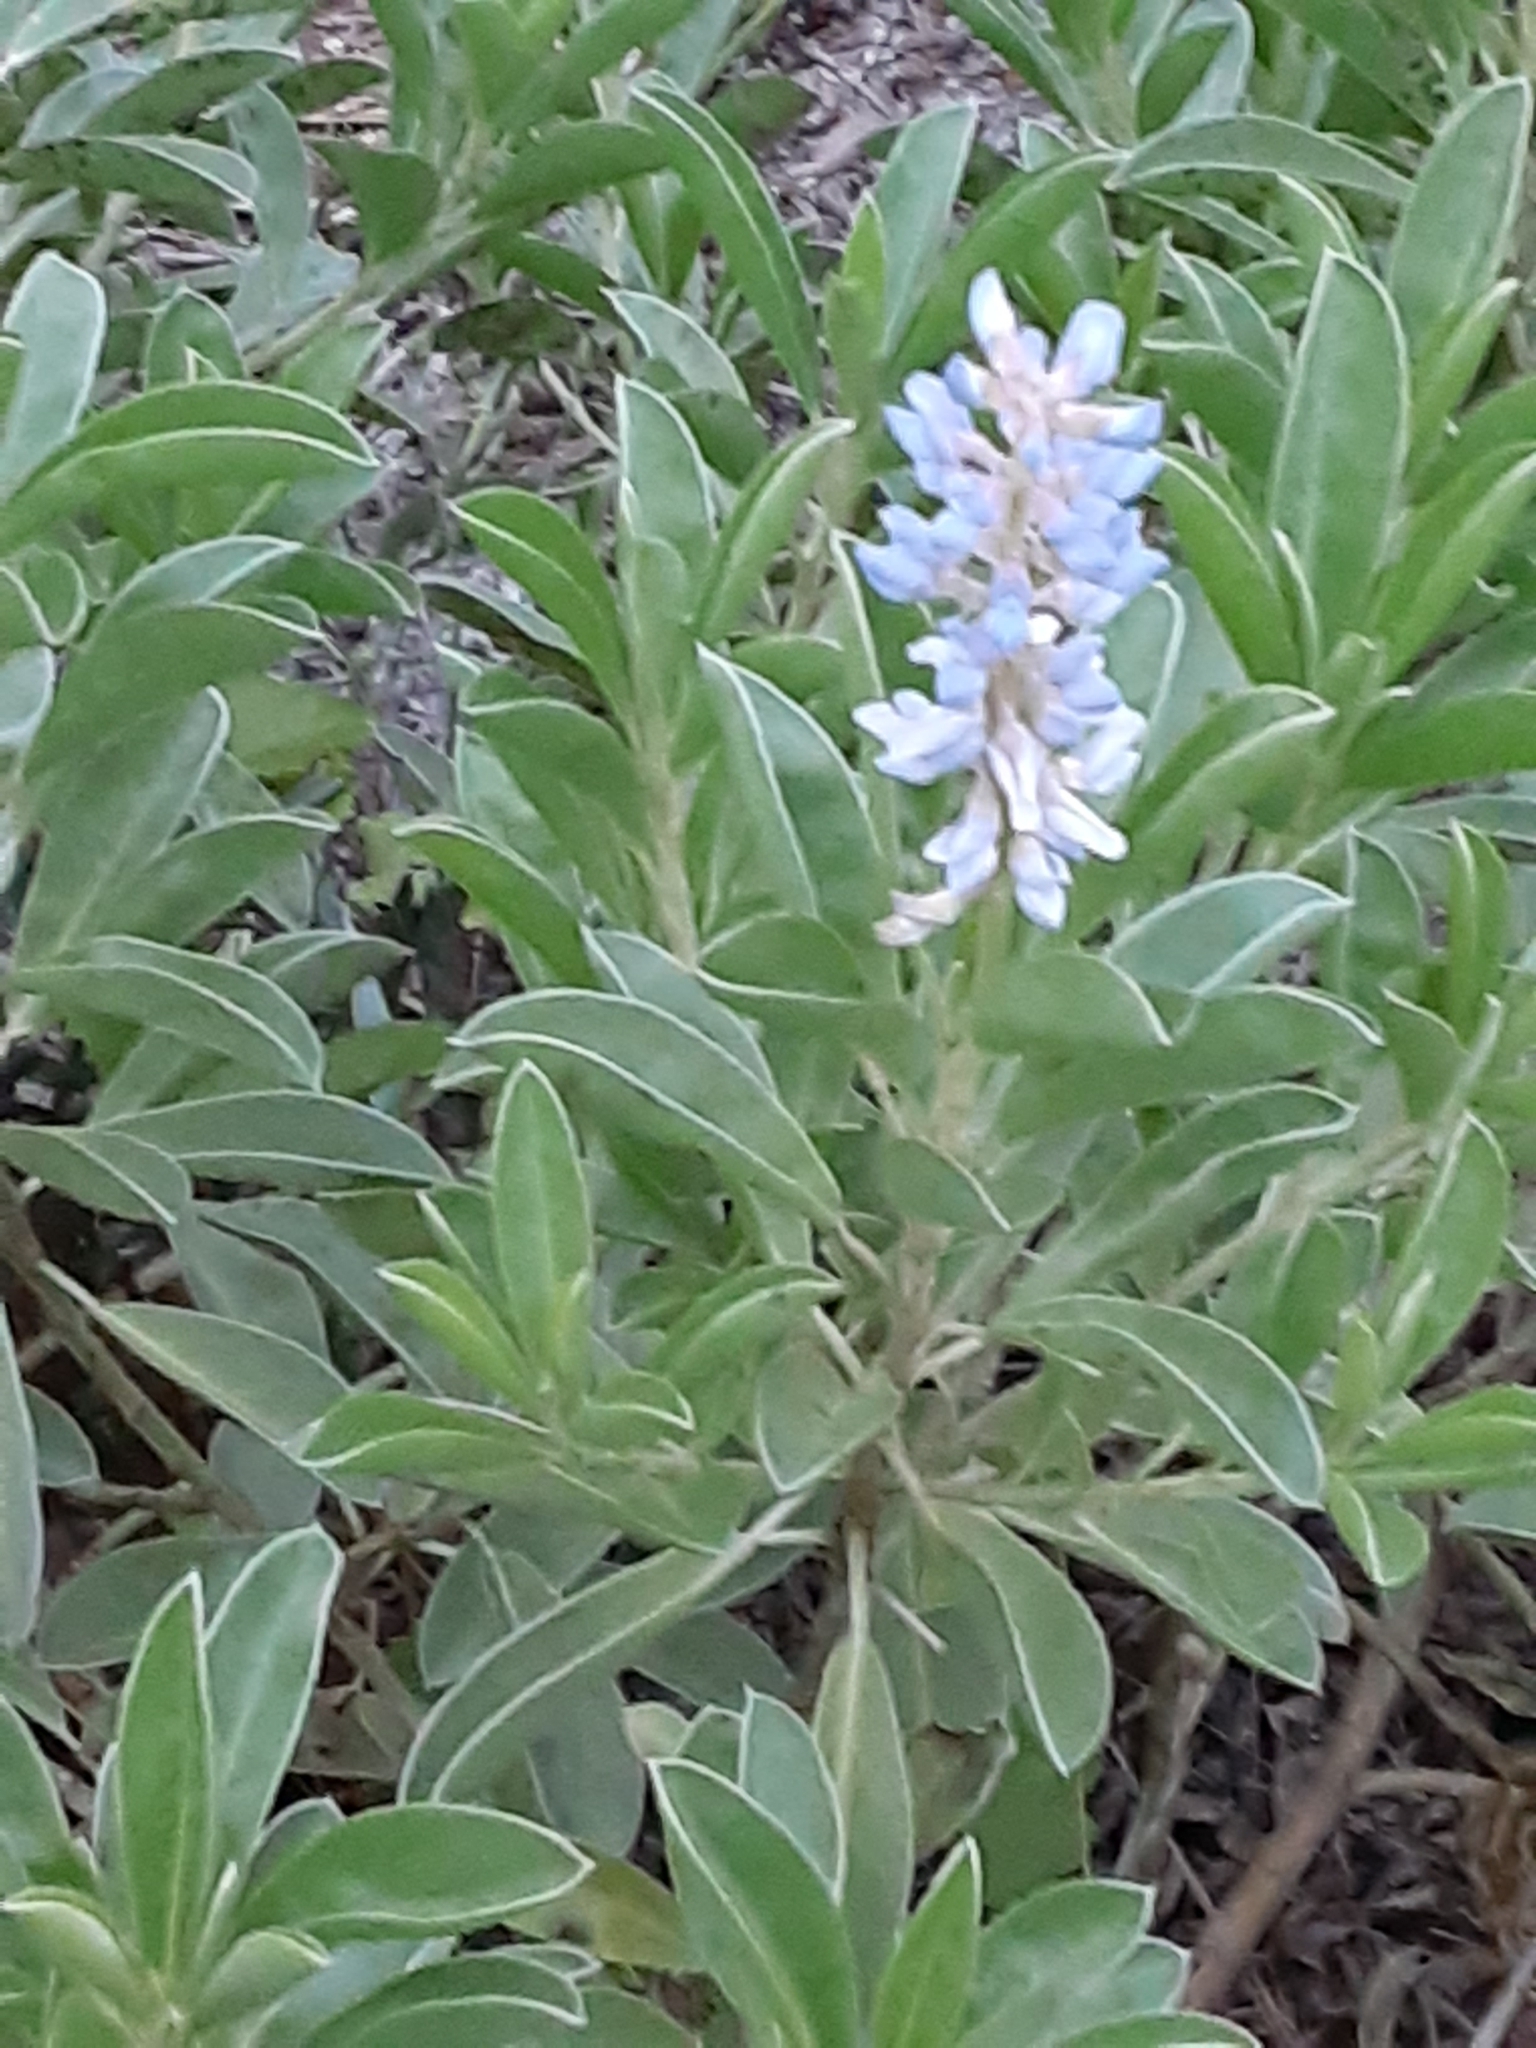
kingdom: Plantae
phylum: Tracheophyta
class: Magnoliopsida
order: Fabales
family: Fabaceae
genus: Lupinus
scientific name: Lupinus
